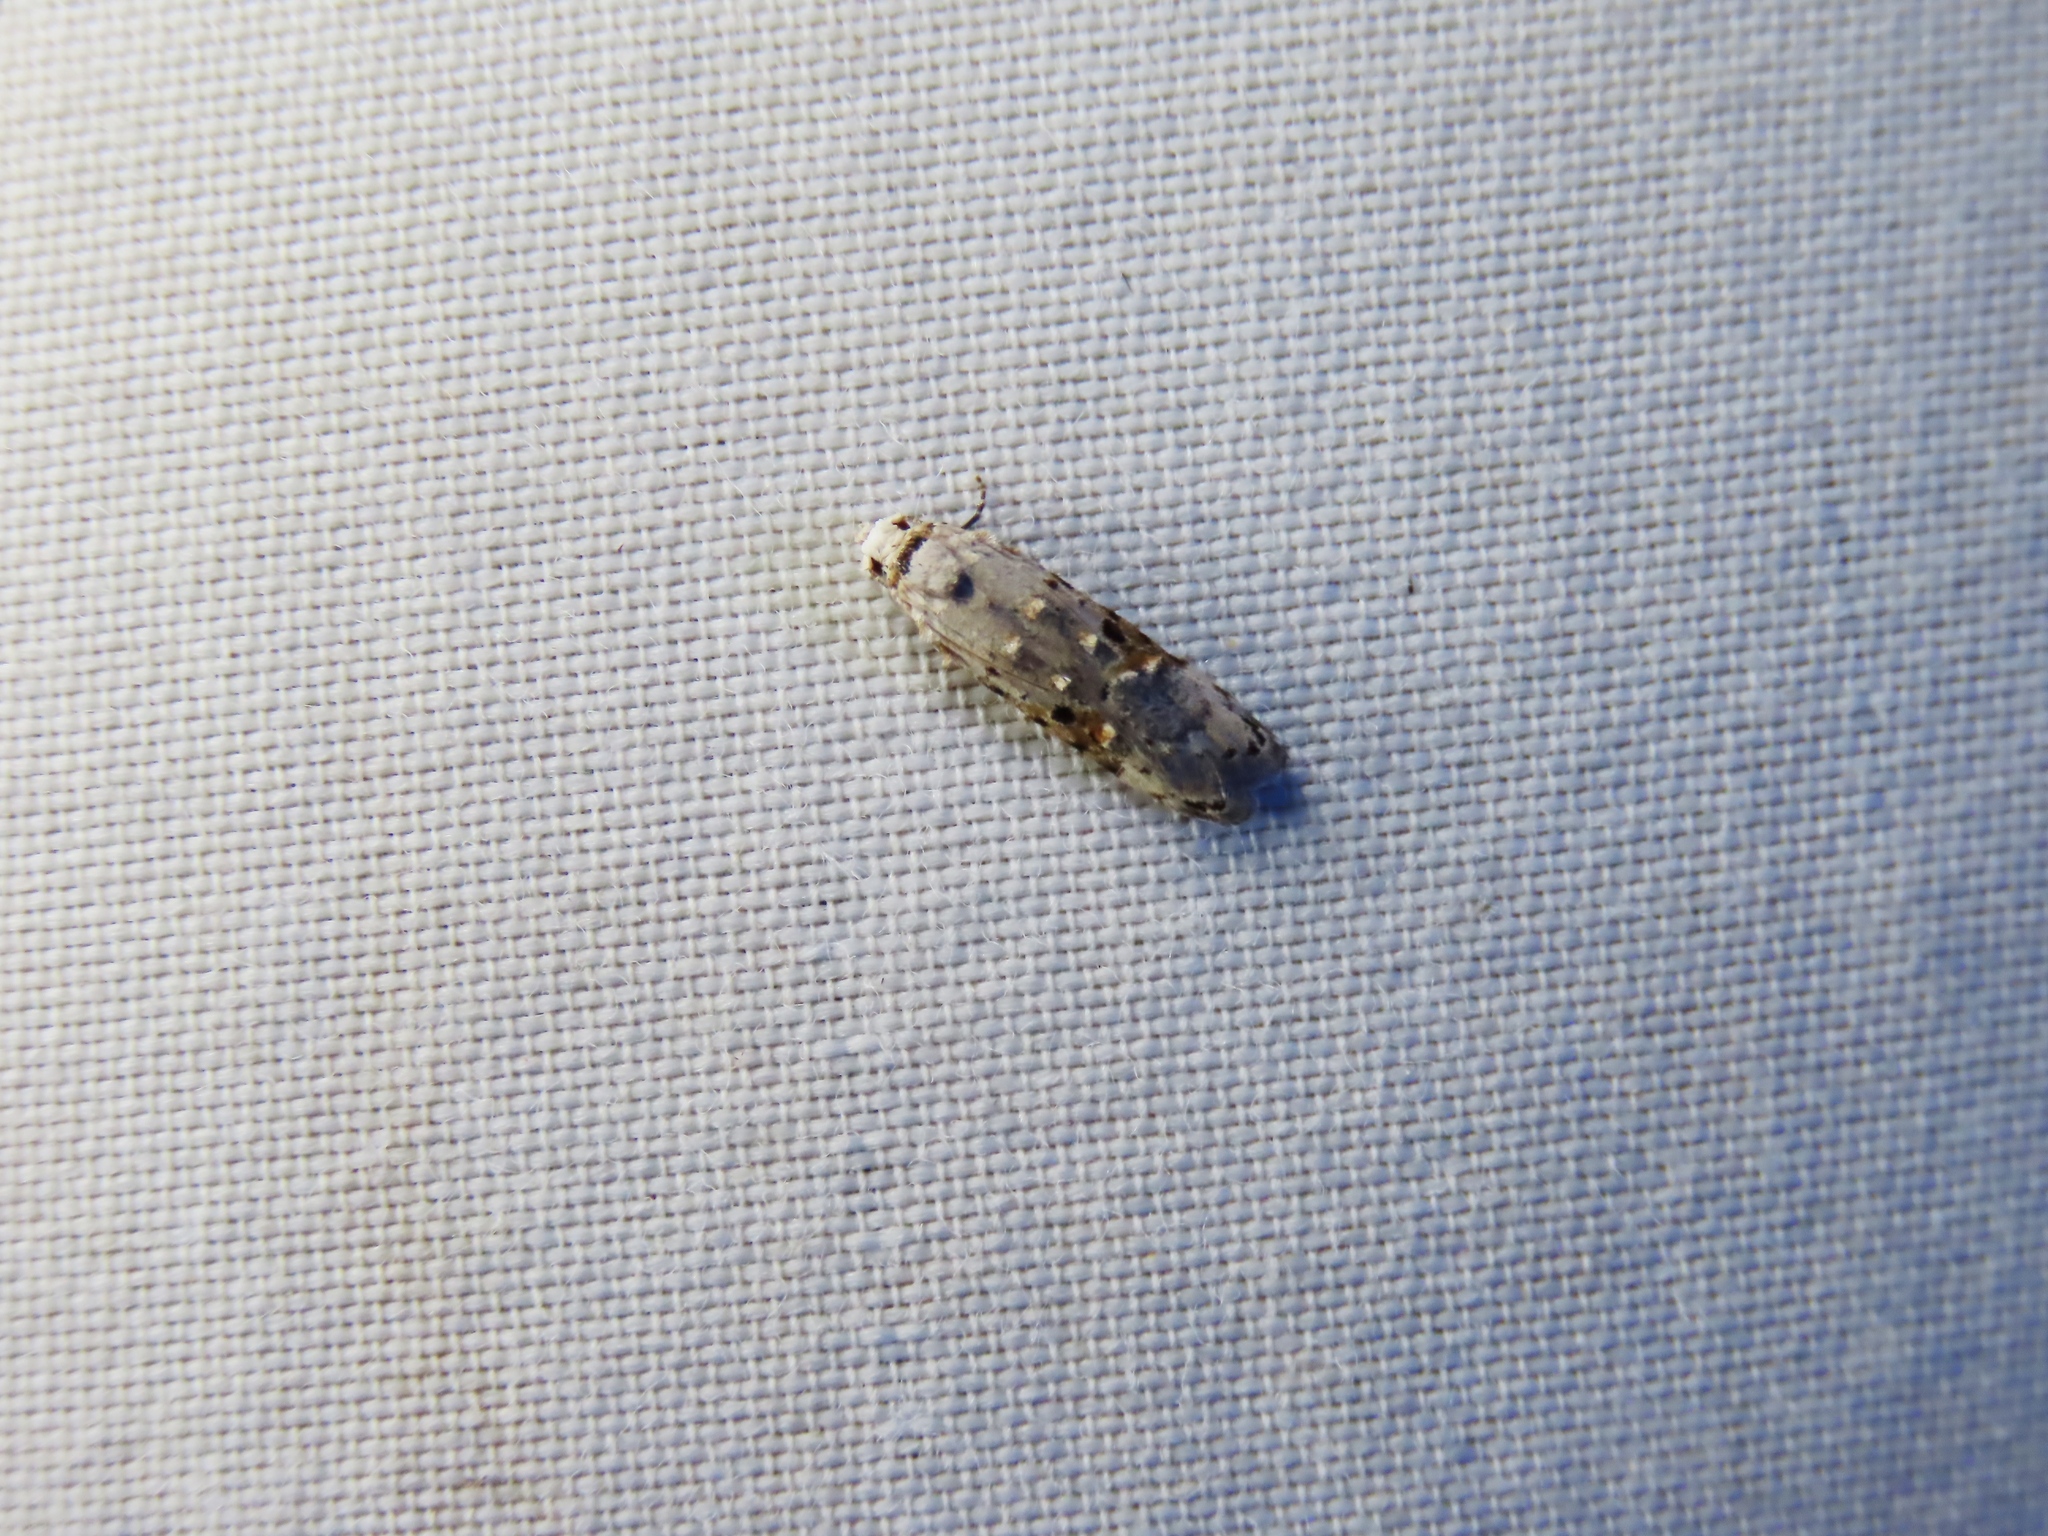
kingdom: Animalia
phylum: Arthropoda
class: Insecta
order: Lepidoptera
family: Carposinidae
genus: Sosineura
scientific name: Sosineura mimica
